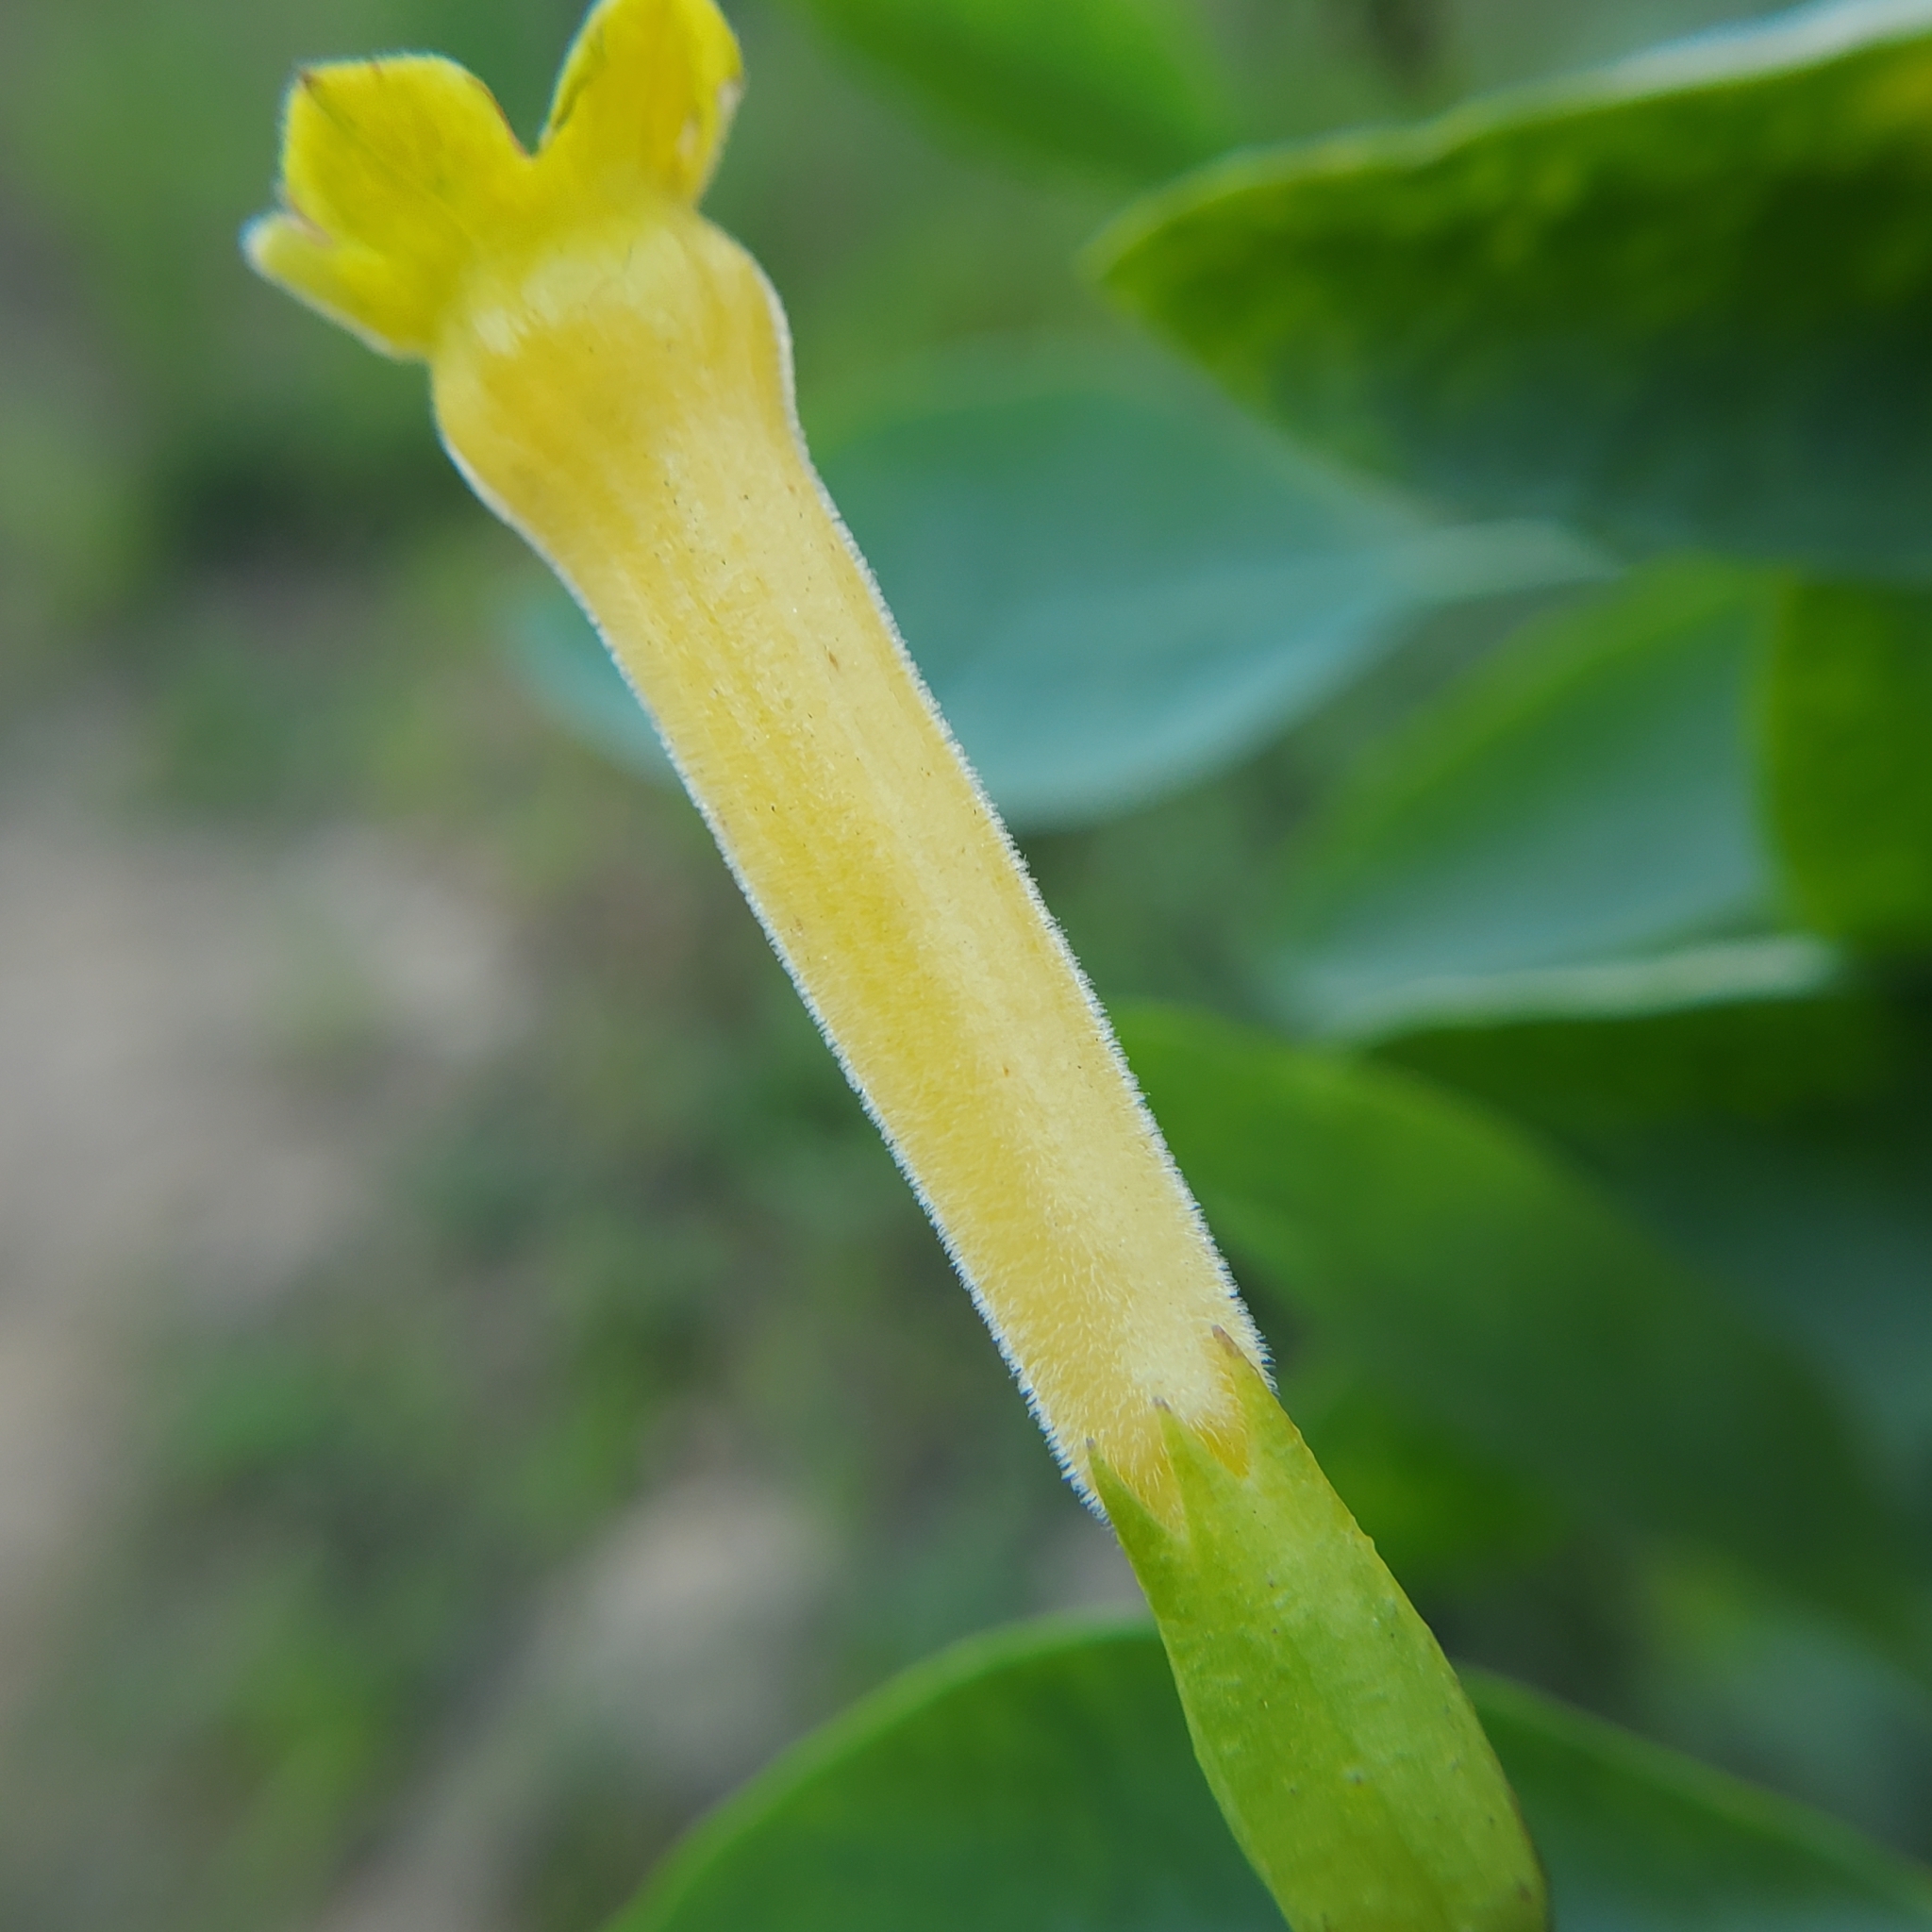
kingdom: Plantae
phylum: Tracheophyta
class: Magnoliopsida
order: Solanales
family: Solanaceae
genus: Nicotiana
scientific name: Nicotiana glauca
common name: Tree tobacco
